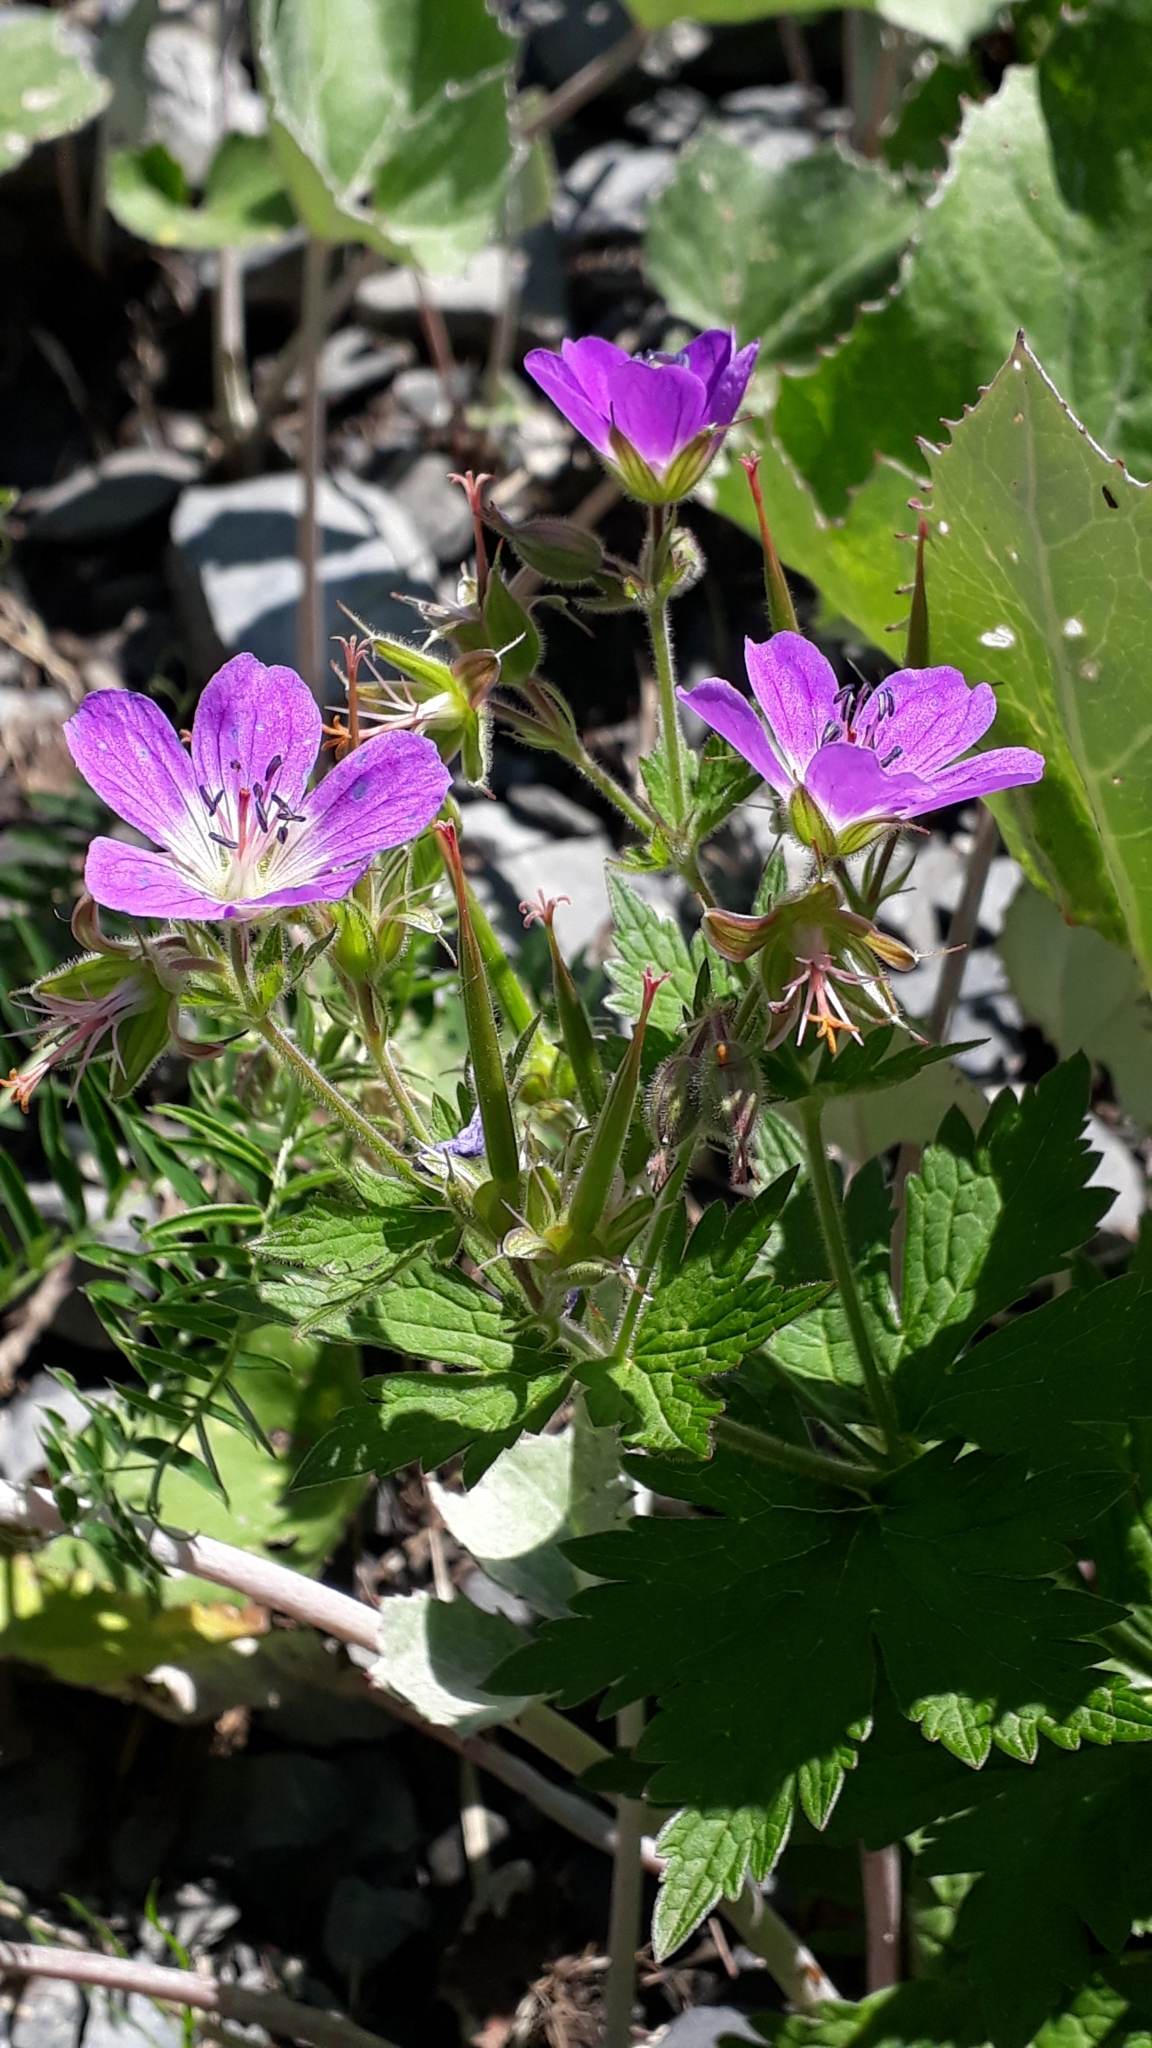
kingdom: Plantae
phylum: Tracheophyta
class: Magnoliopsida
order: Geraniales
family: Geraniaceae
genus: Geranium
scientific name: Geranium sylvaticum
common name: Wood crane's-bill
